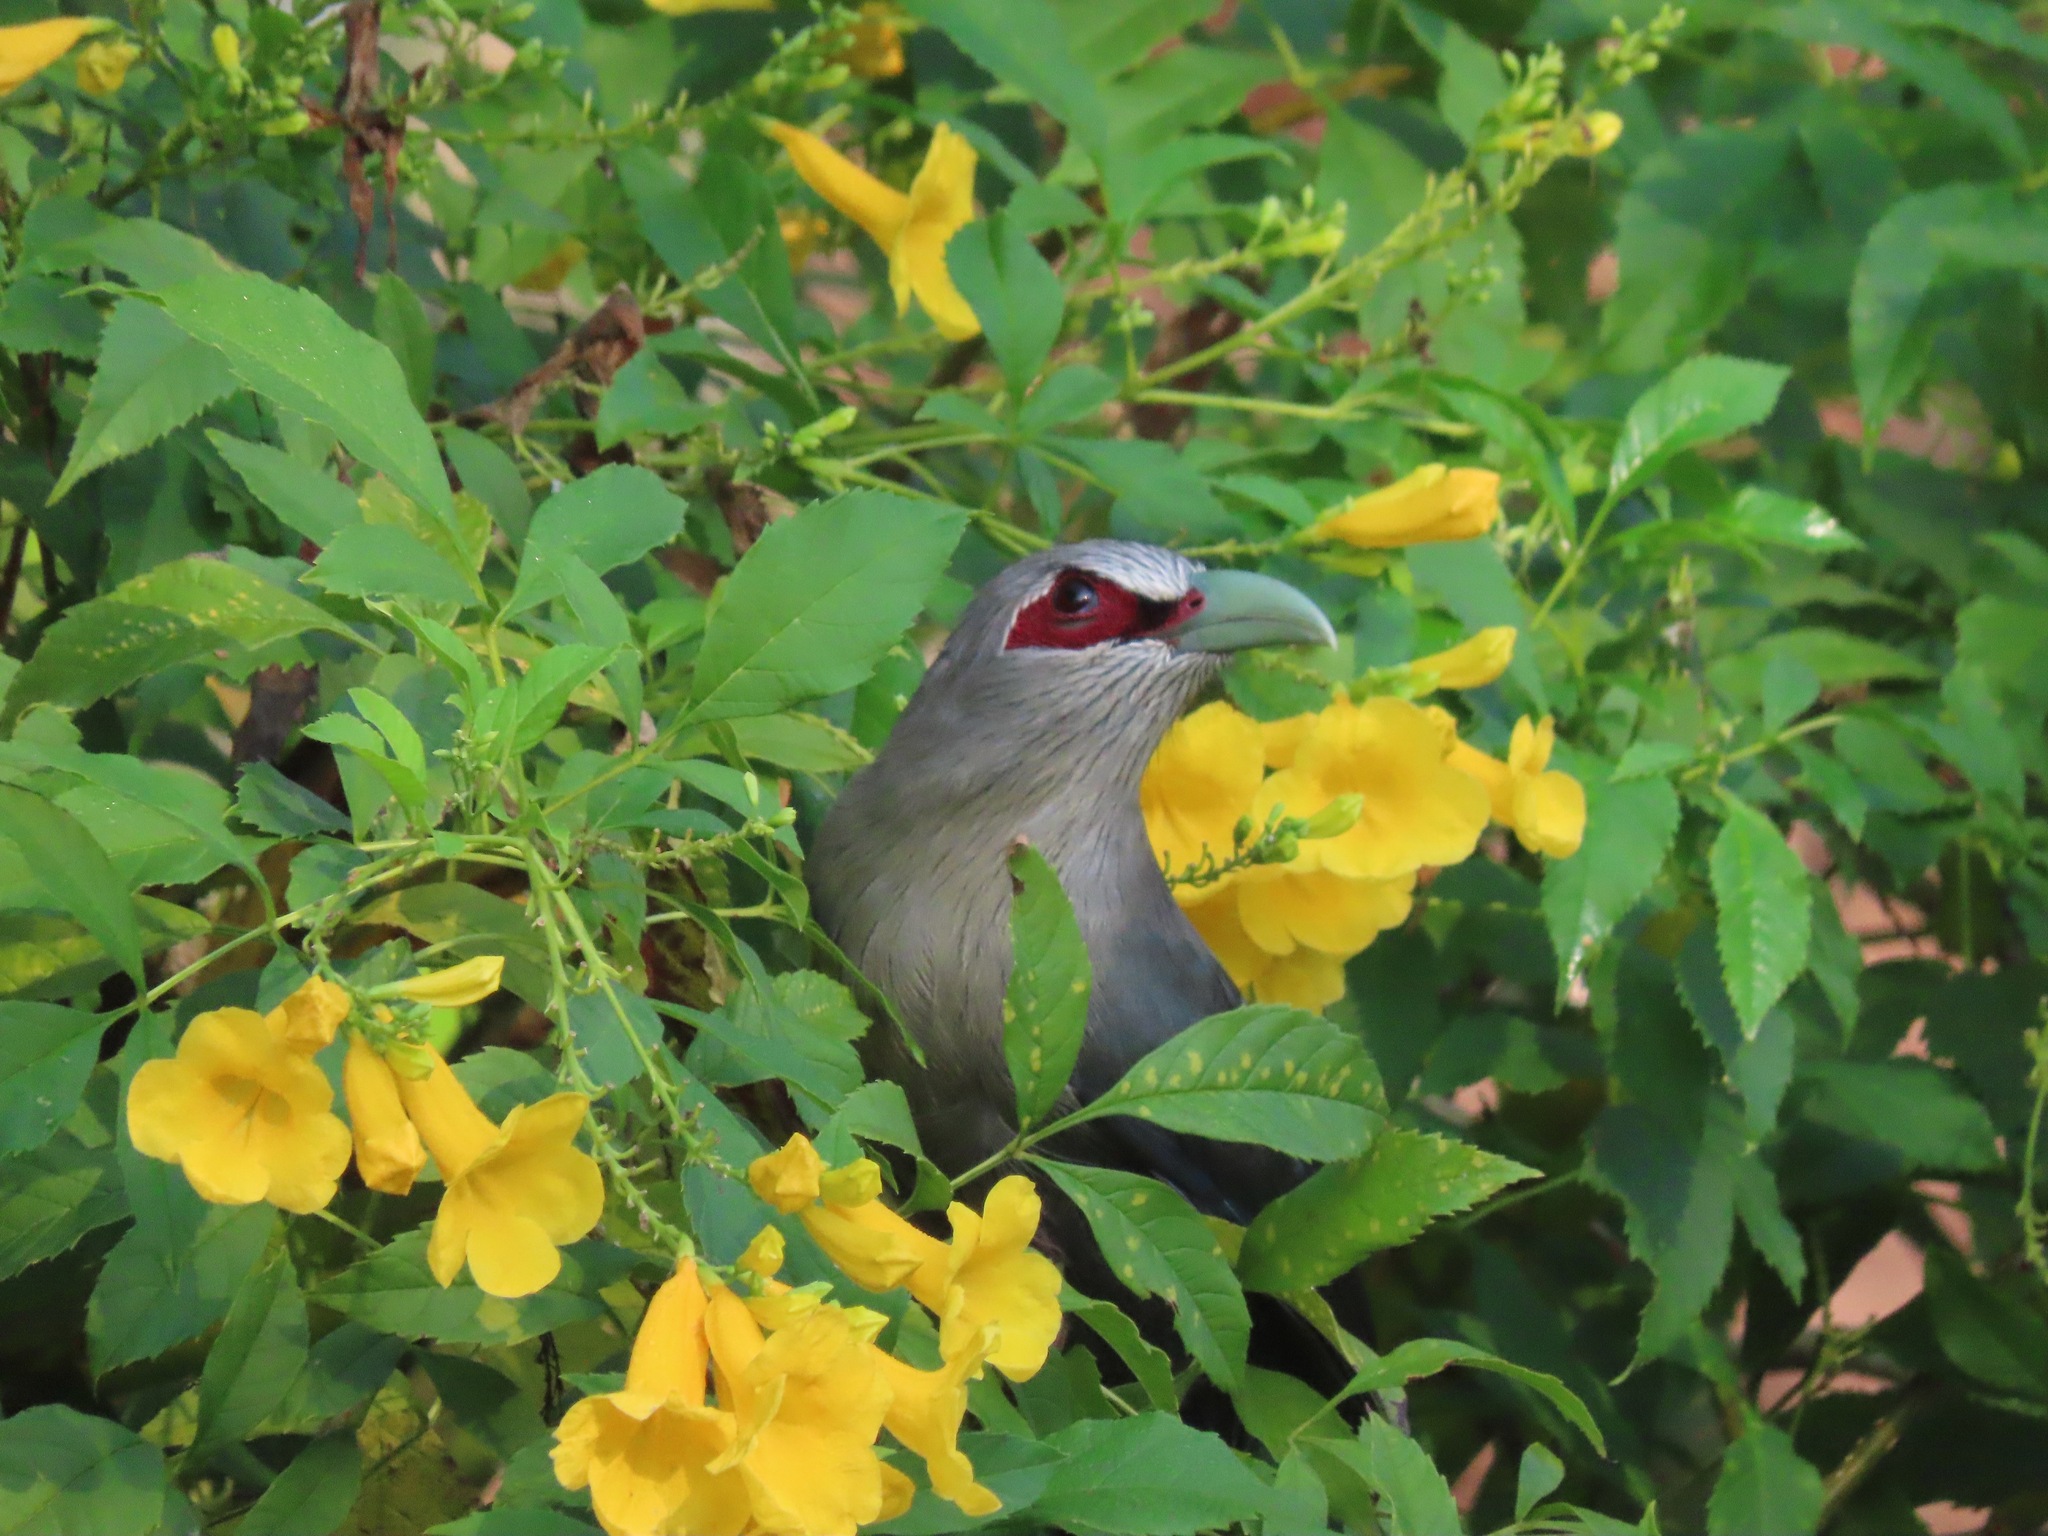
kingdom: Animalia
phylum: Chordata
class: Aves
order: Cuculiformes
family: Cuculidae
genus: Rhopodytes
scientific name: Rhopodytes tristis
